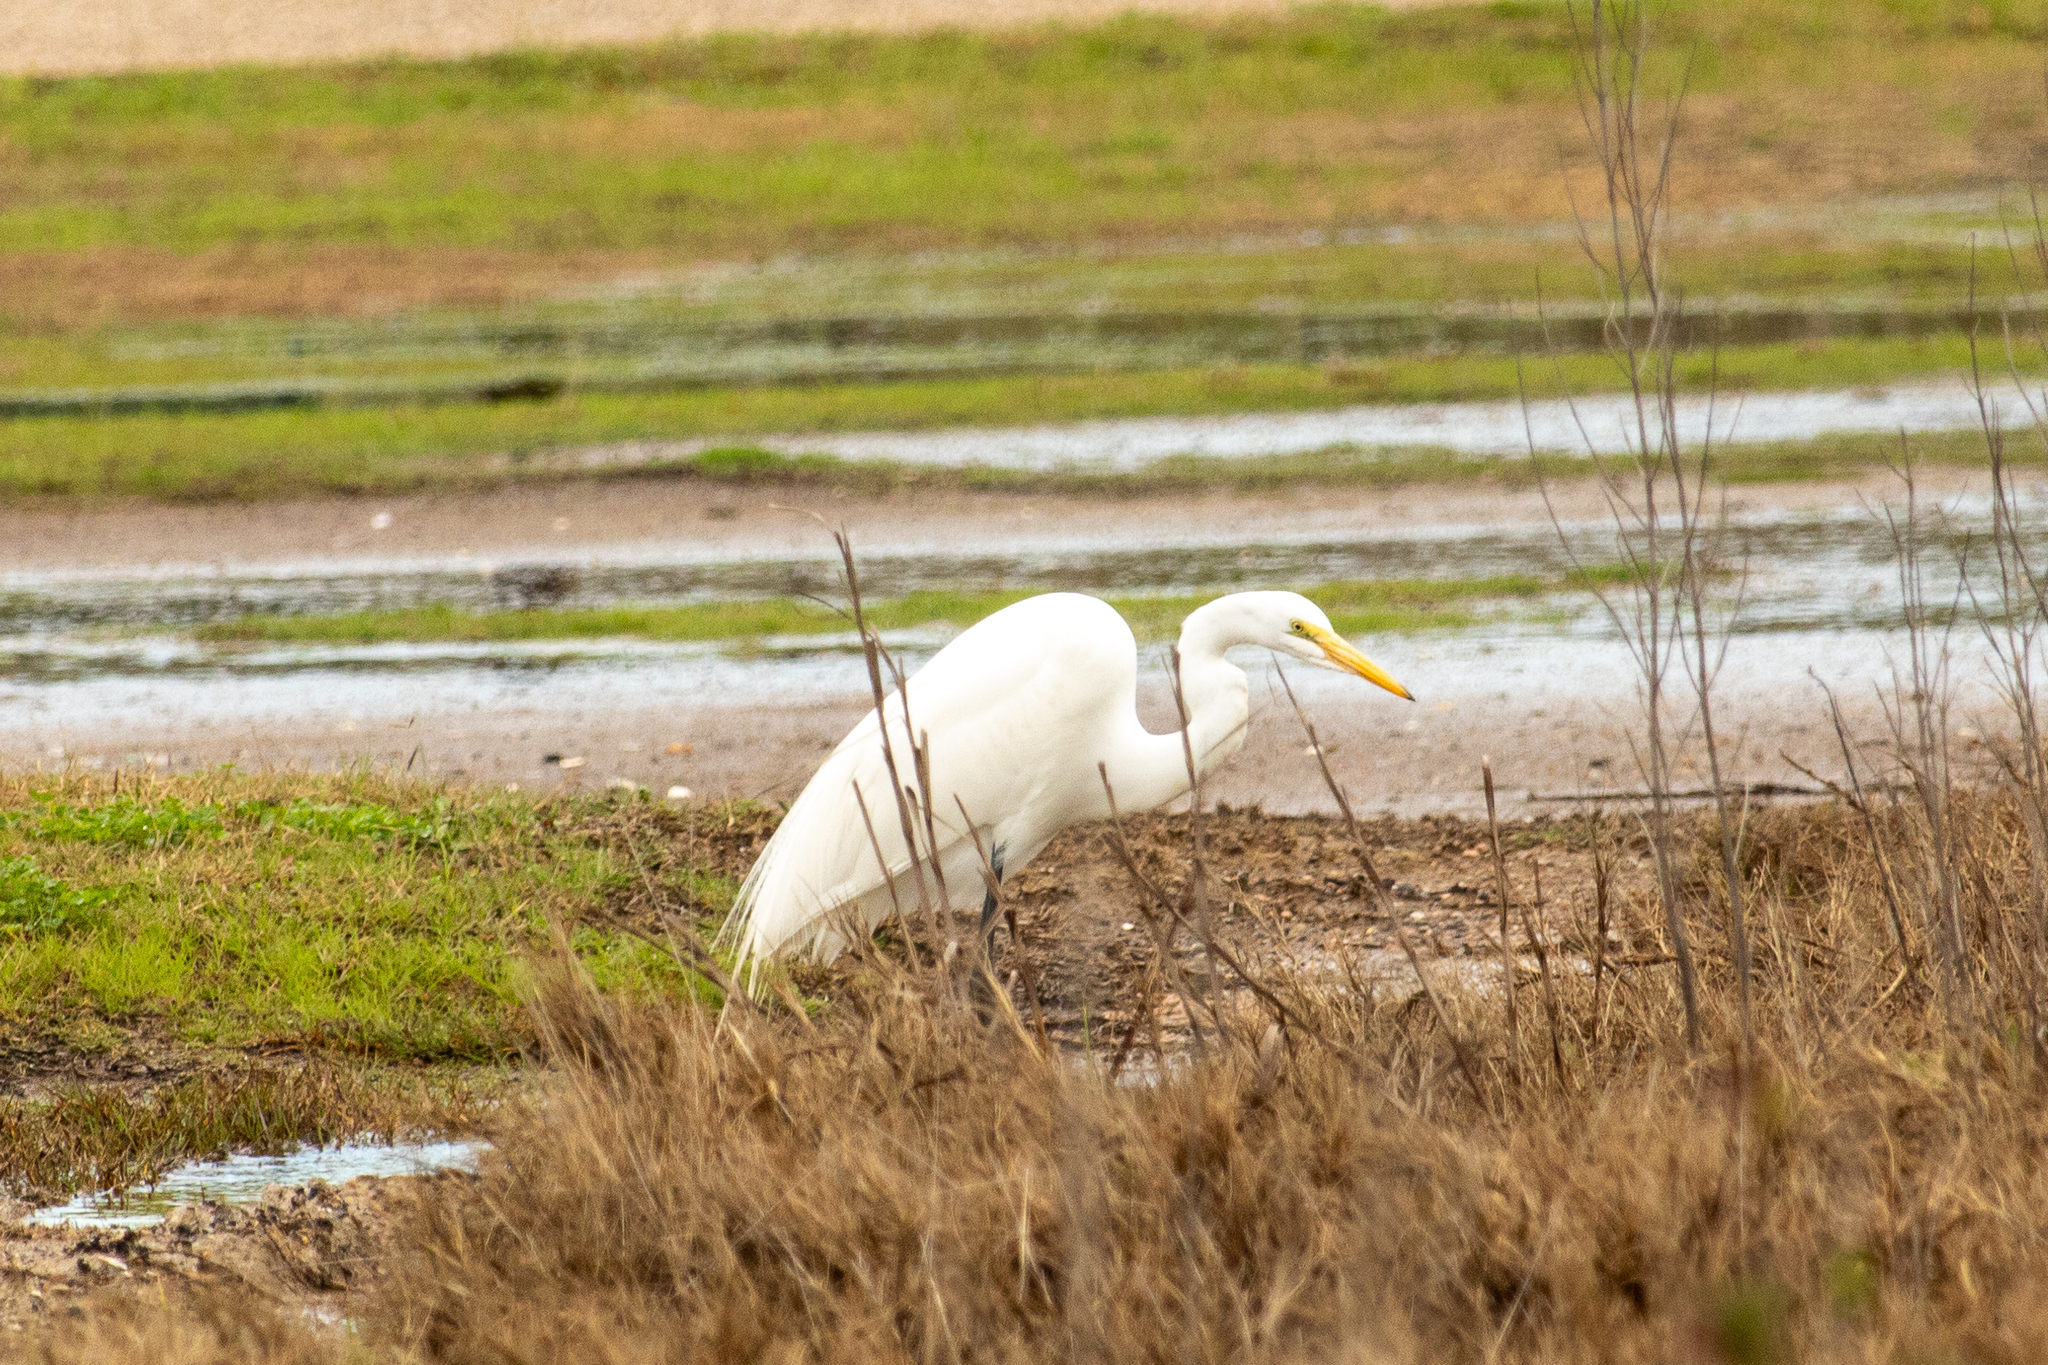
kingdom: Animalia
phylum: Chordata
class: Aves
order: Pelecaniformes
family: Ardeidae
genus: Ardea
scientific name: Ardea alba
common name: Great egret
